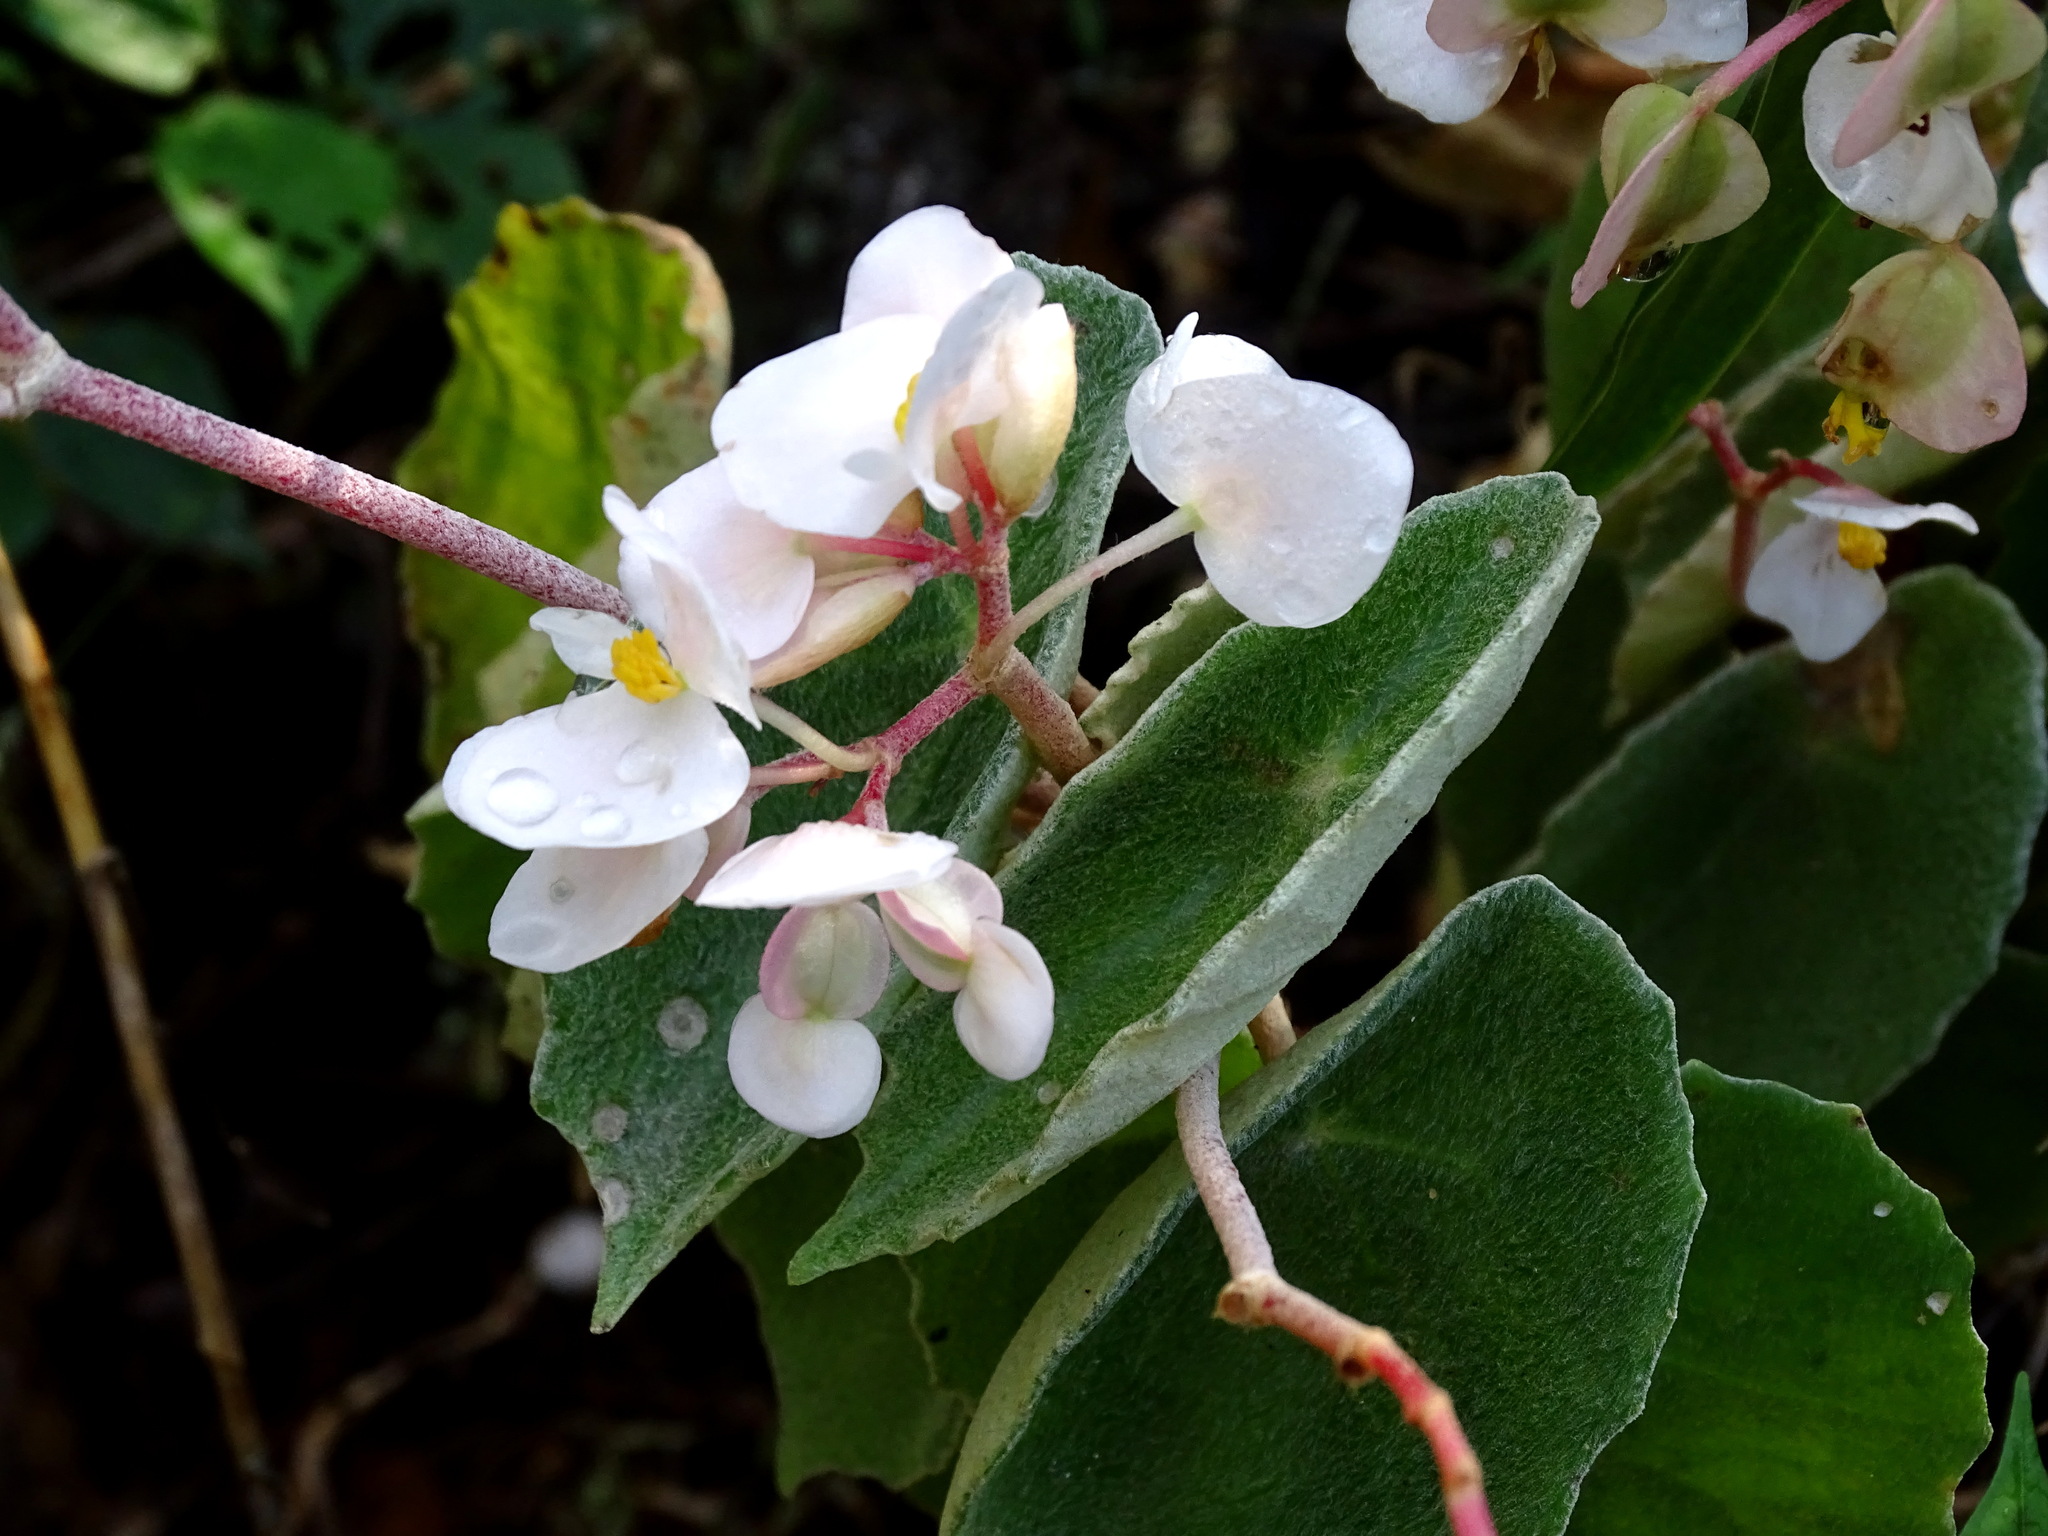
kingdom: Plantae
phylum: Tracheophyta
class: Magnoliopsida
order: Cucurbitales
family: Begoniaceae
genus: Begonia
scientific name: Begonia peltata
